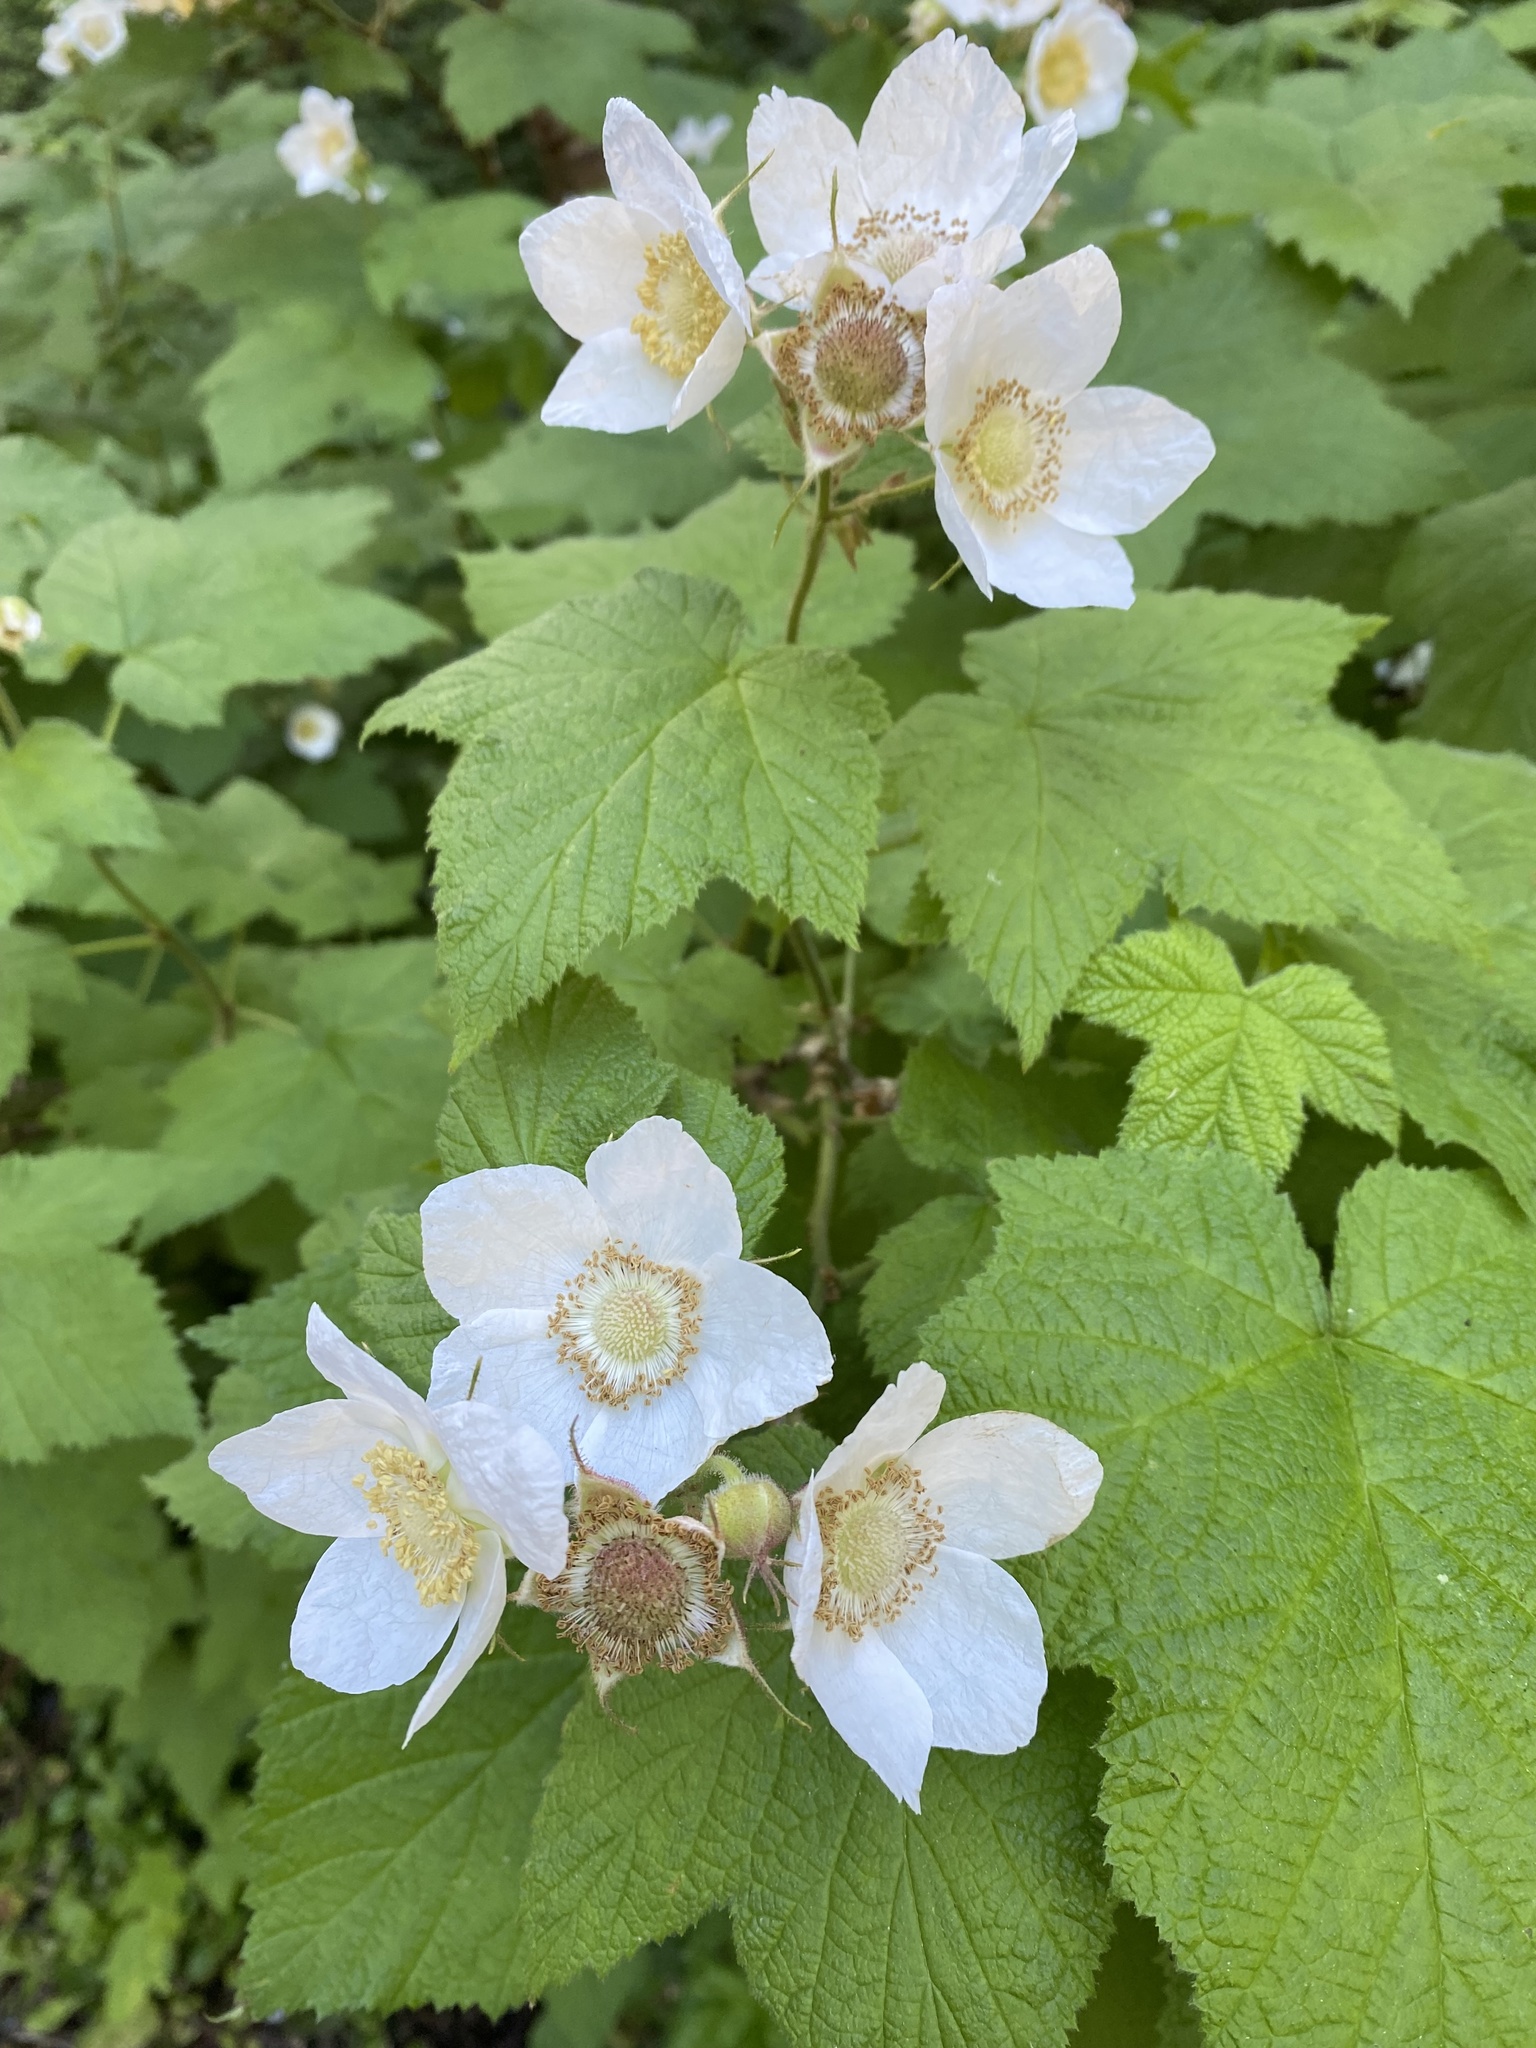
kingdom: Plantae
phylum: Tracheophyta
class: Magnoliopsida
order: Rosales
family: Rosaceae
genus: Rubus
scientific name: Rubus parviflorus
